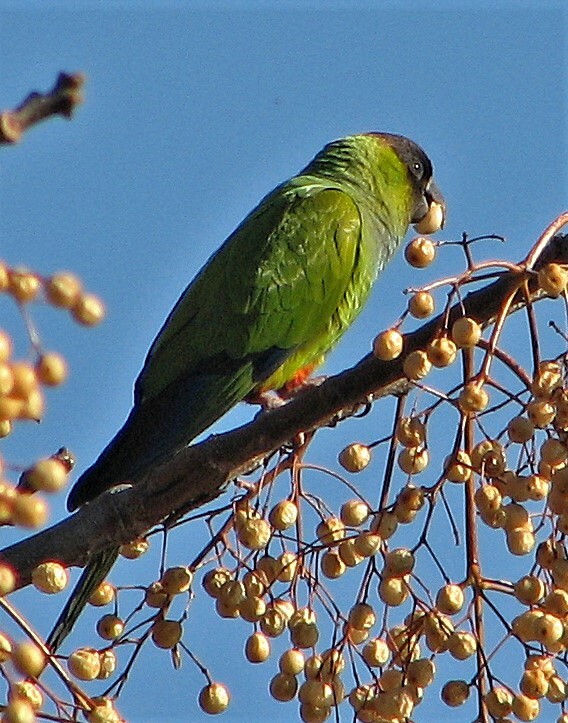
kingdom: Animalia
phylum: Chordata
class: Aves
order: Psittaciformes
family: Psittacidae
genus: Nandayus
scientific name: Nandayus nenday
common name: Nanday parakeet
